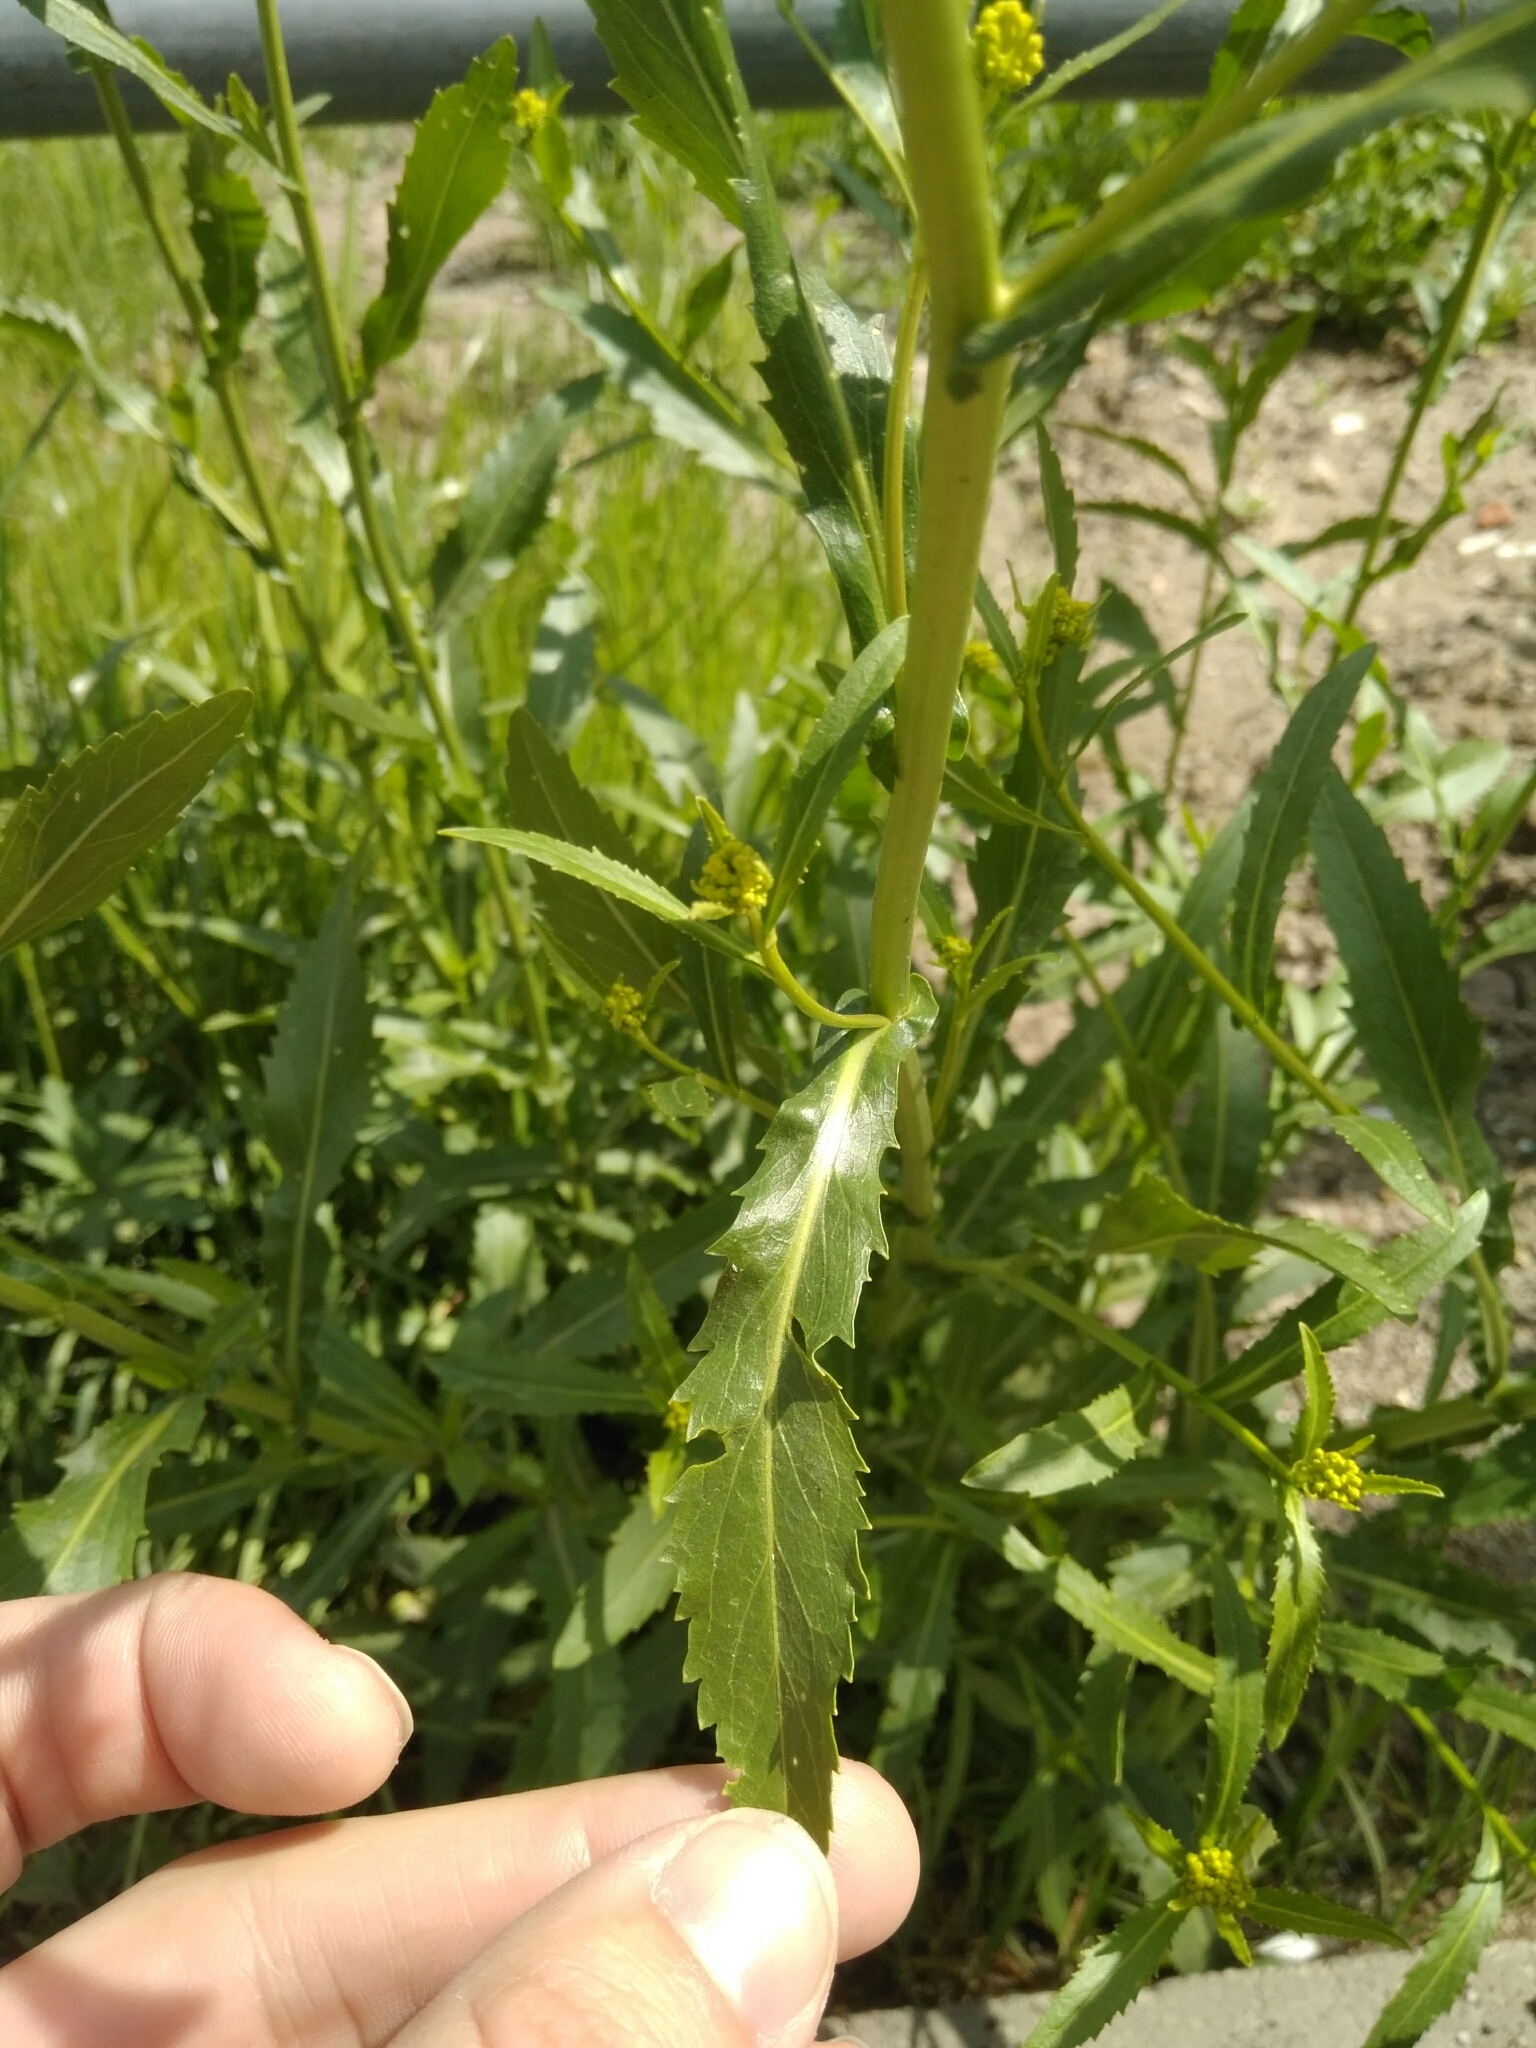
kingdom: Plantae
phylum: Tracheophyta
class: Magnoliopsida
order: Brassicales
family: Brassicaceae
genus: Rorippa
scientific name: Rorippa austriaca
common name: Austrian yellow-cress
